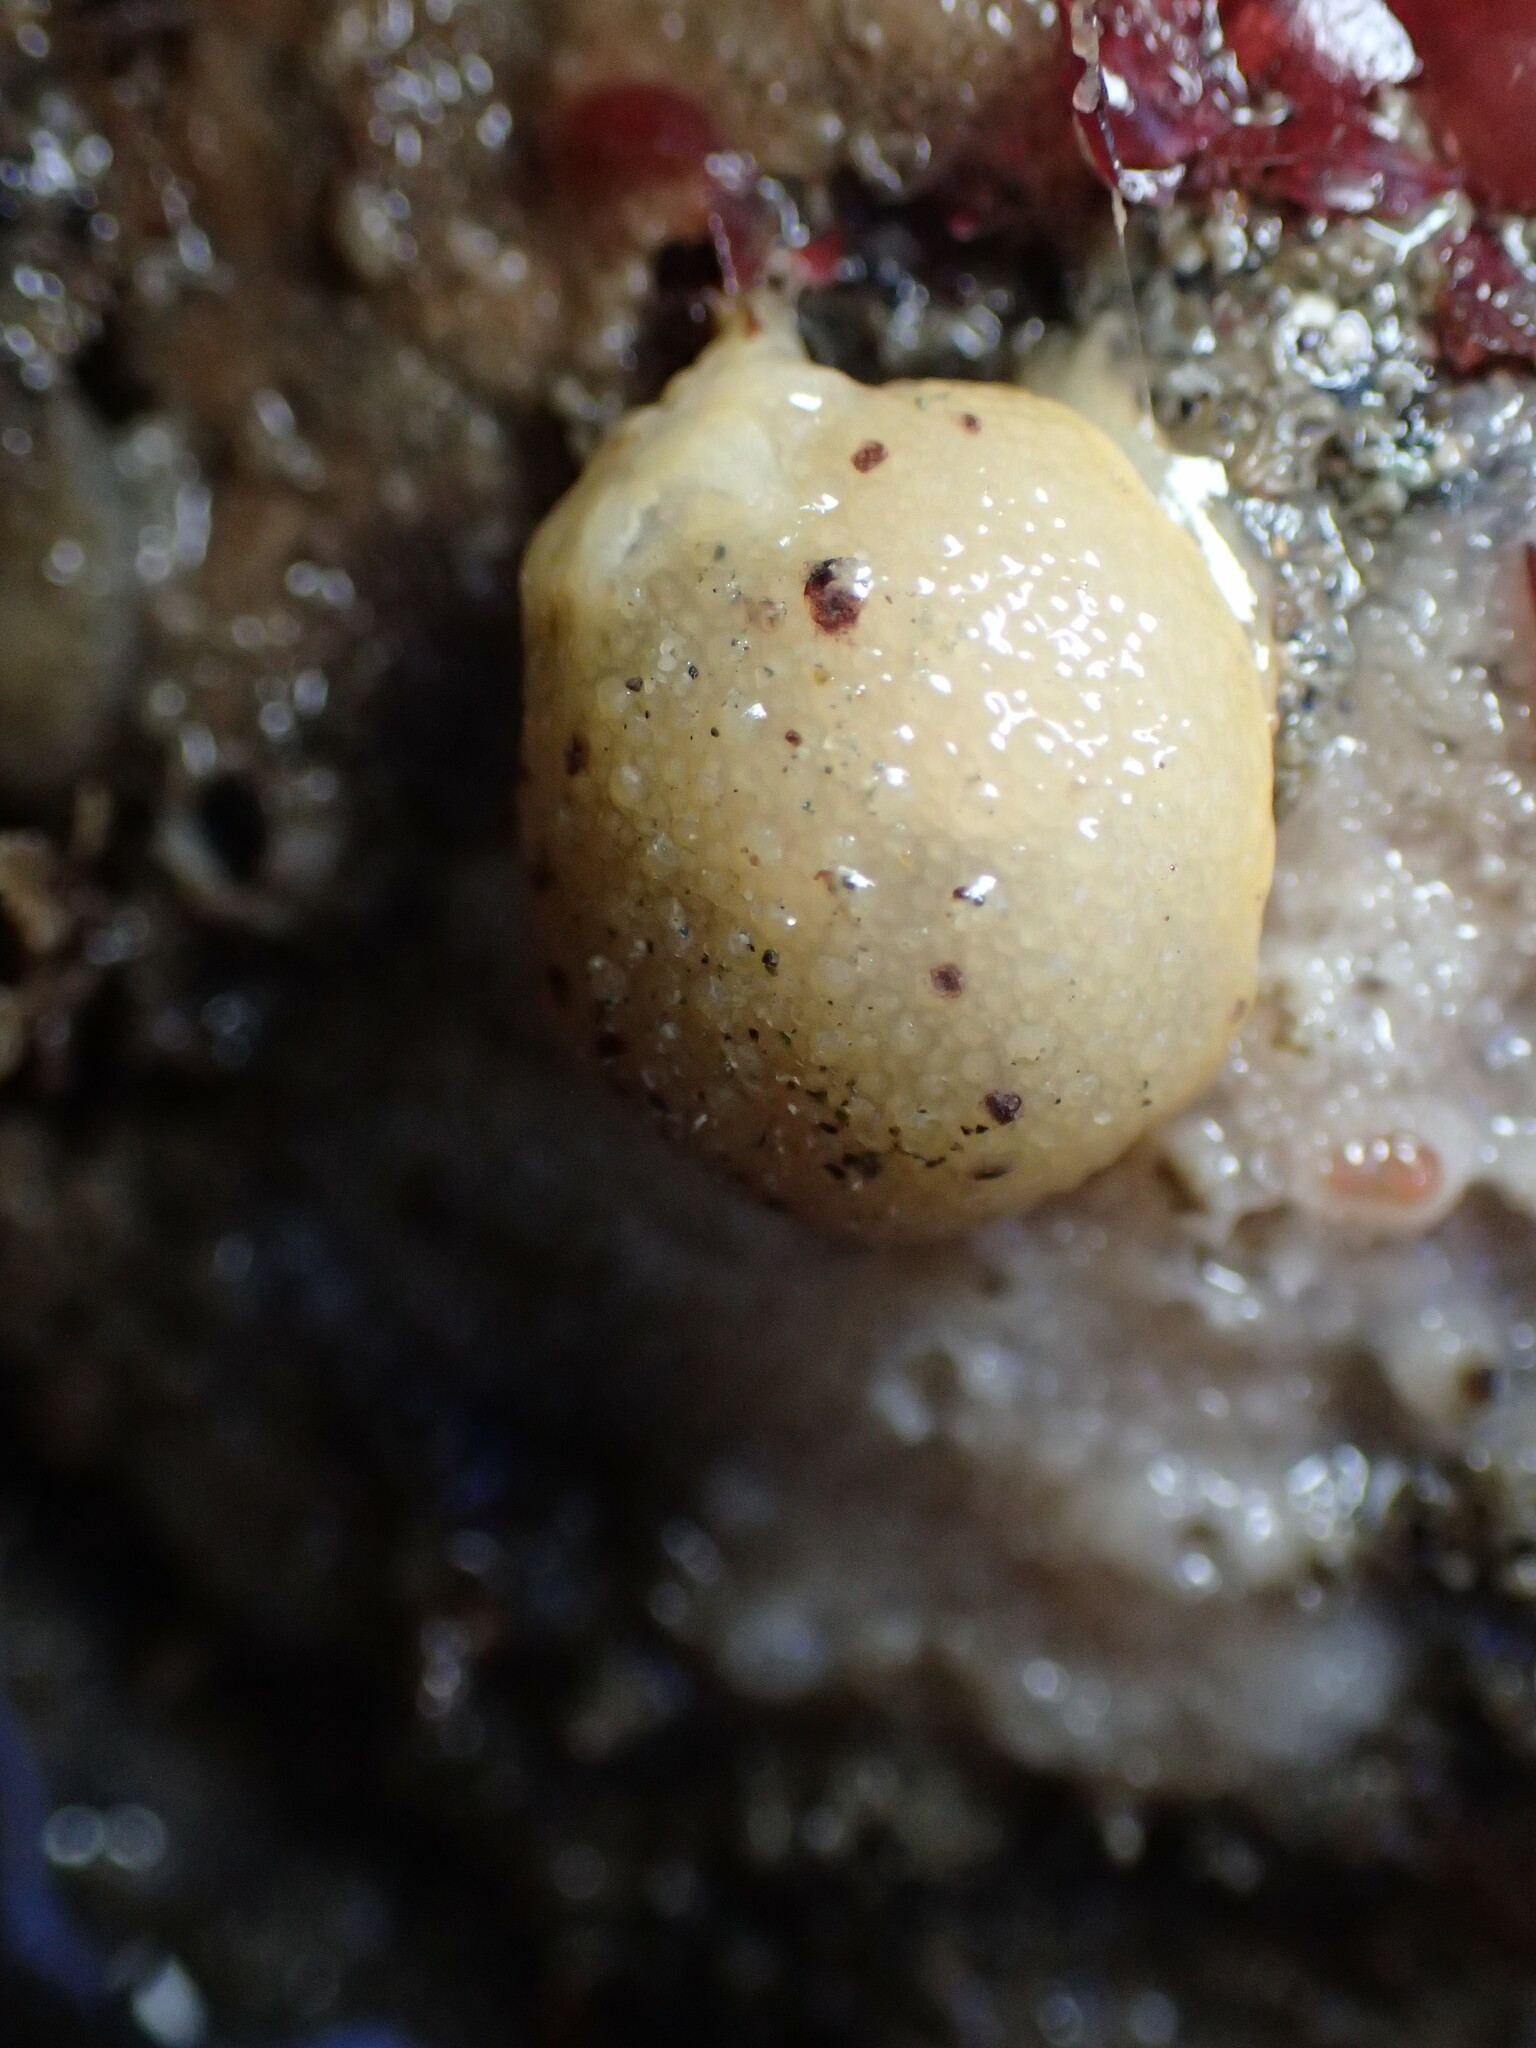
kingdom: Animalia
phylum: Mollusca
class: Gastropoda
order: Nudibranchia
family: Dorididae
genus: Doris
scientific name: Doris montereyensis
